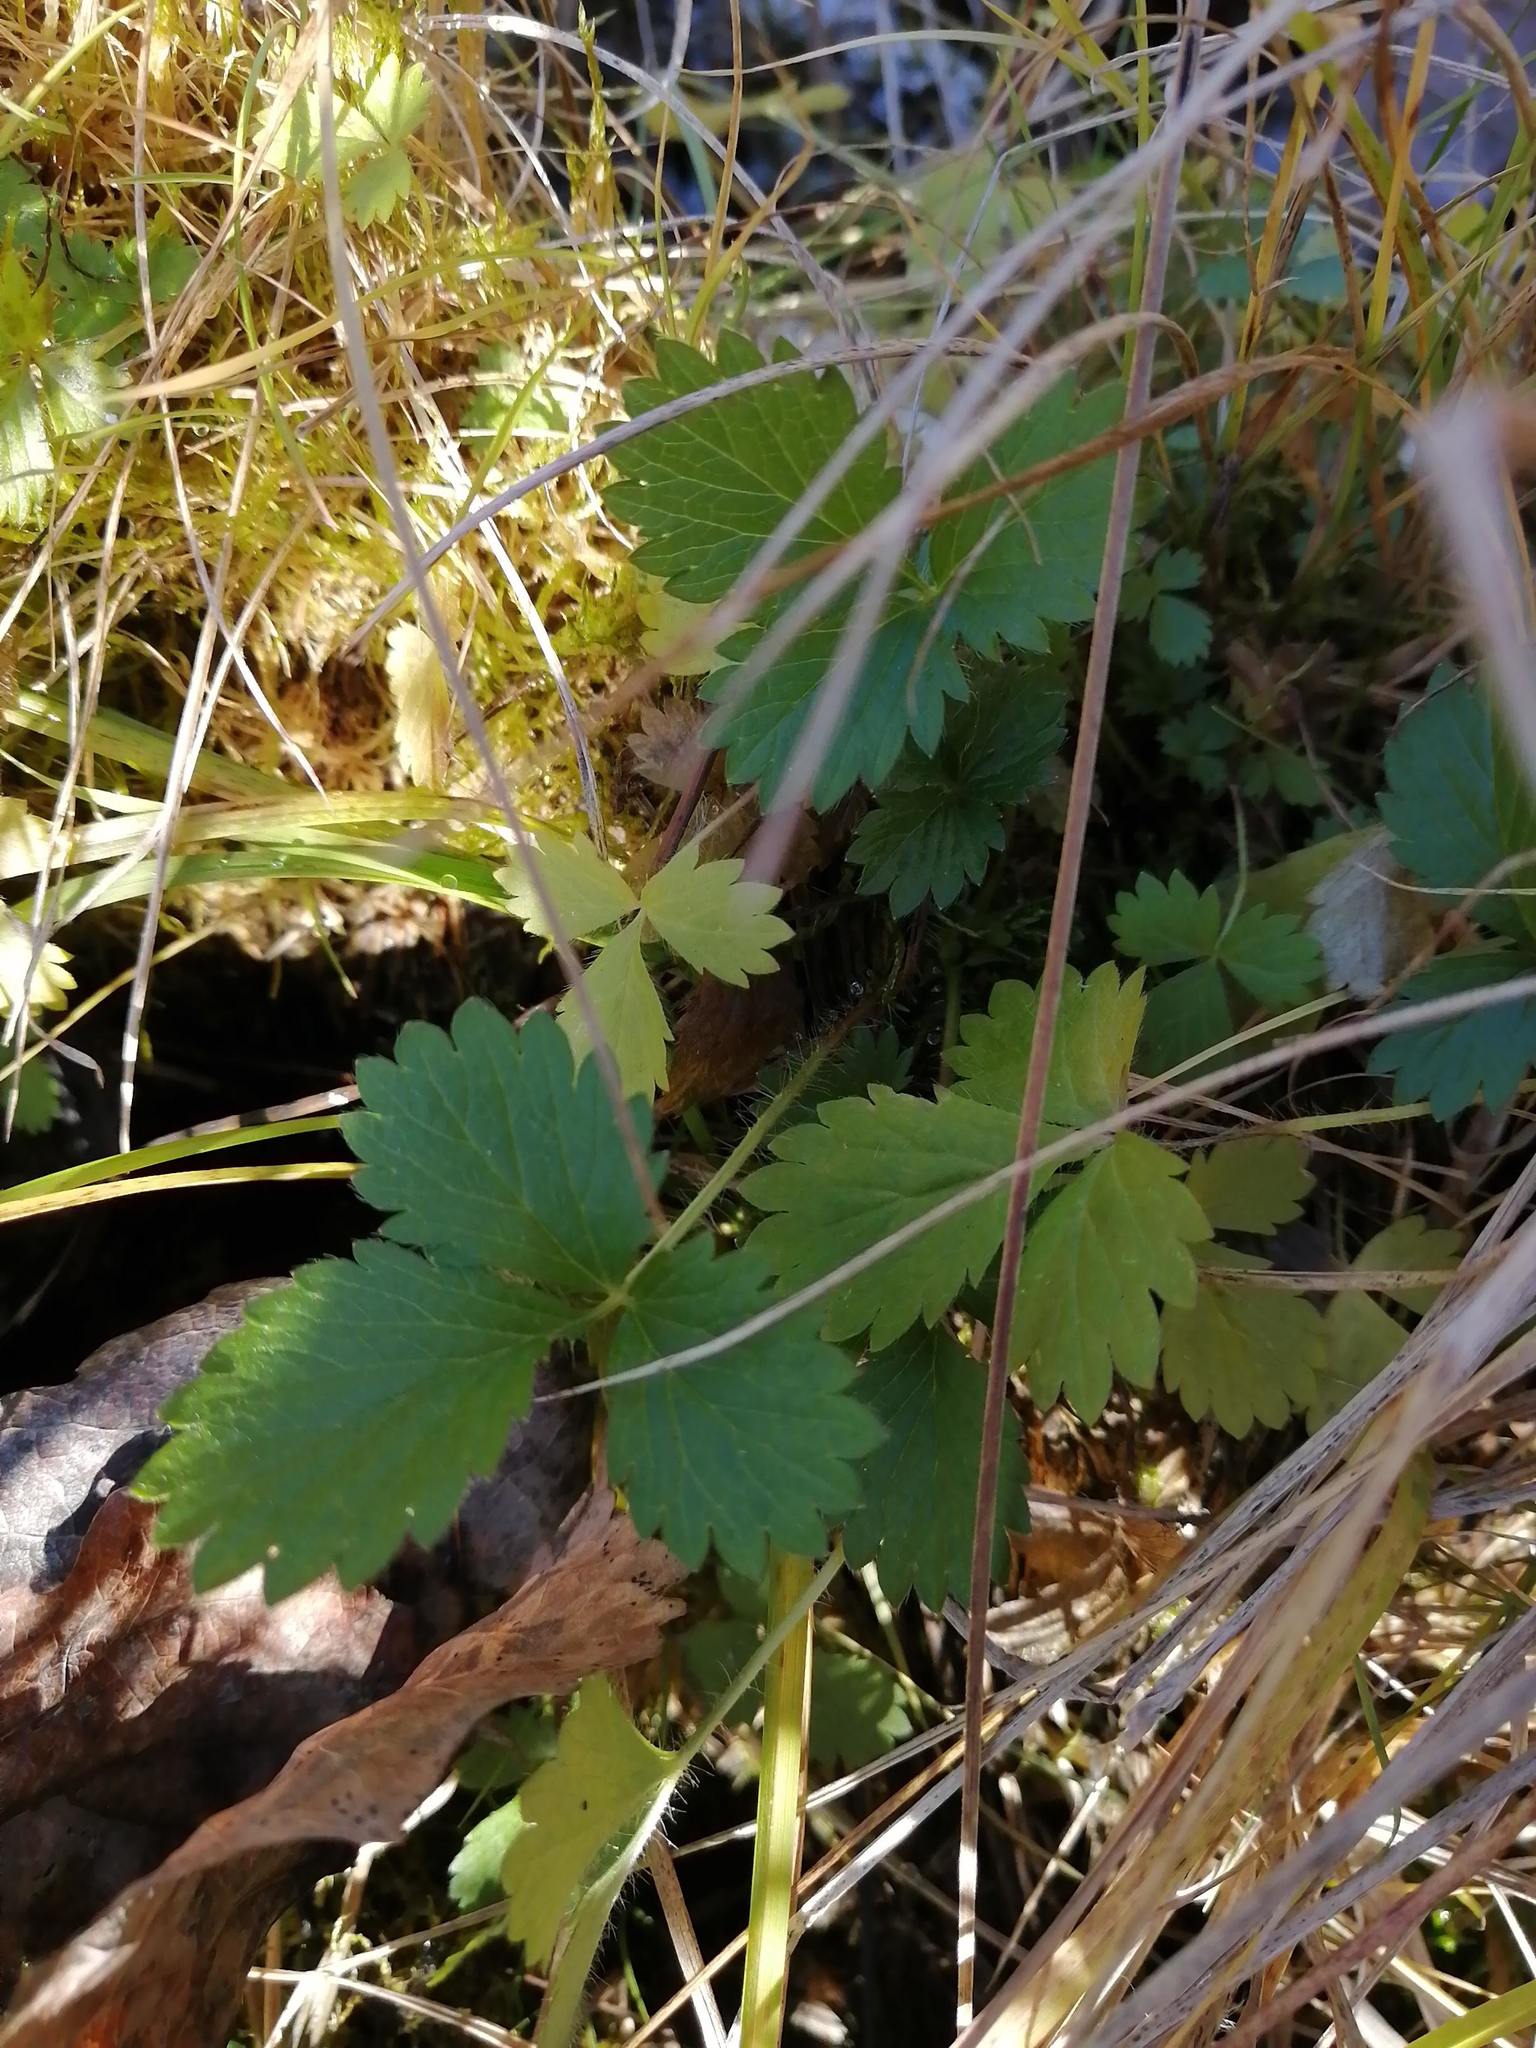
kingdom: Plantae
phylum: Tracheophyta
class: Magnoliopsida
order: Rosales
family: Rosaceae
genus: Potentilla
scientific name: Potentilla norvegica
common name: Ternate-leaved cinquefoil
